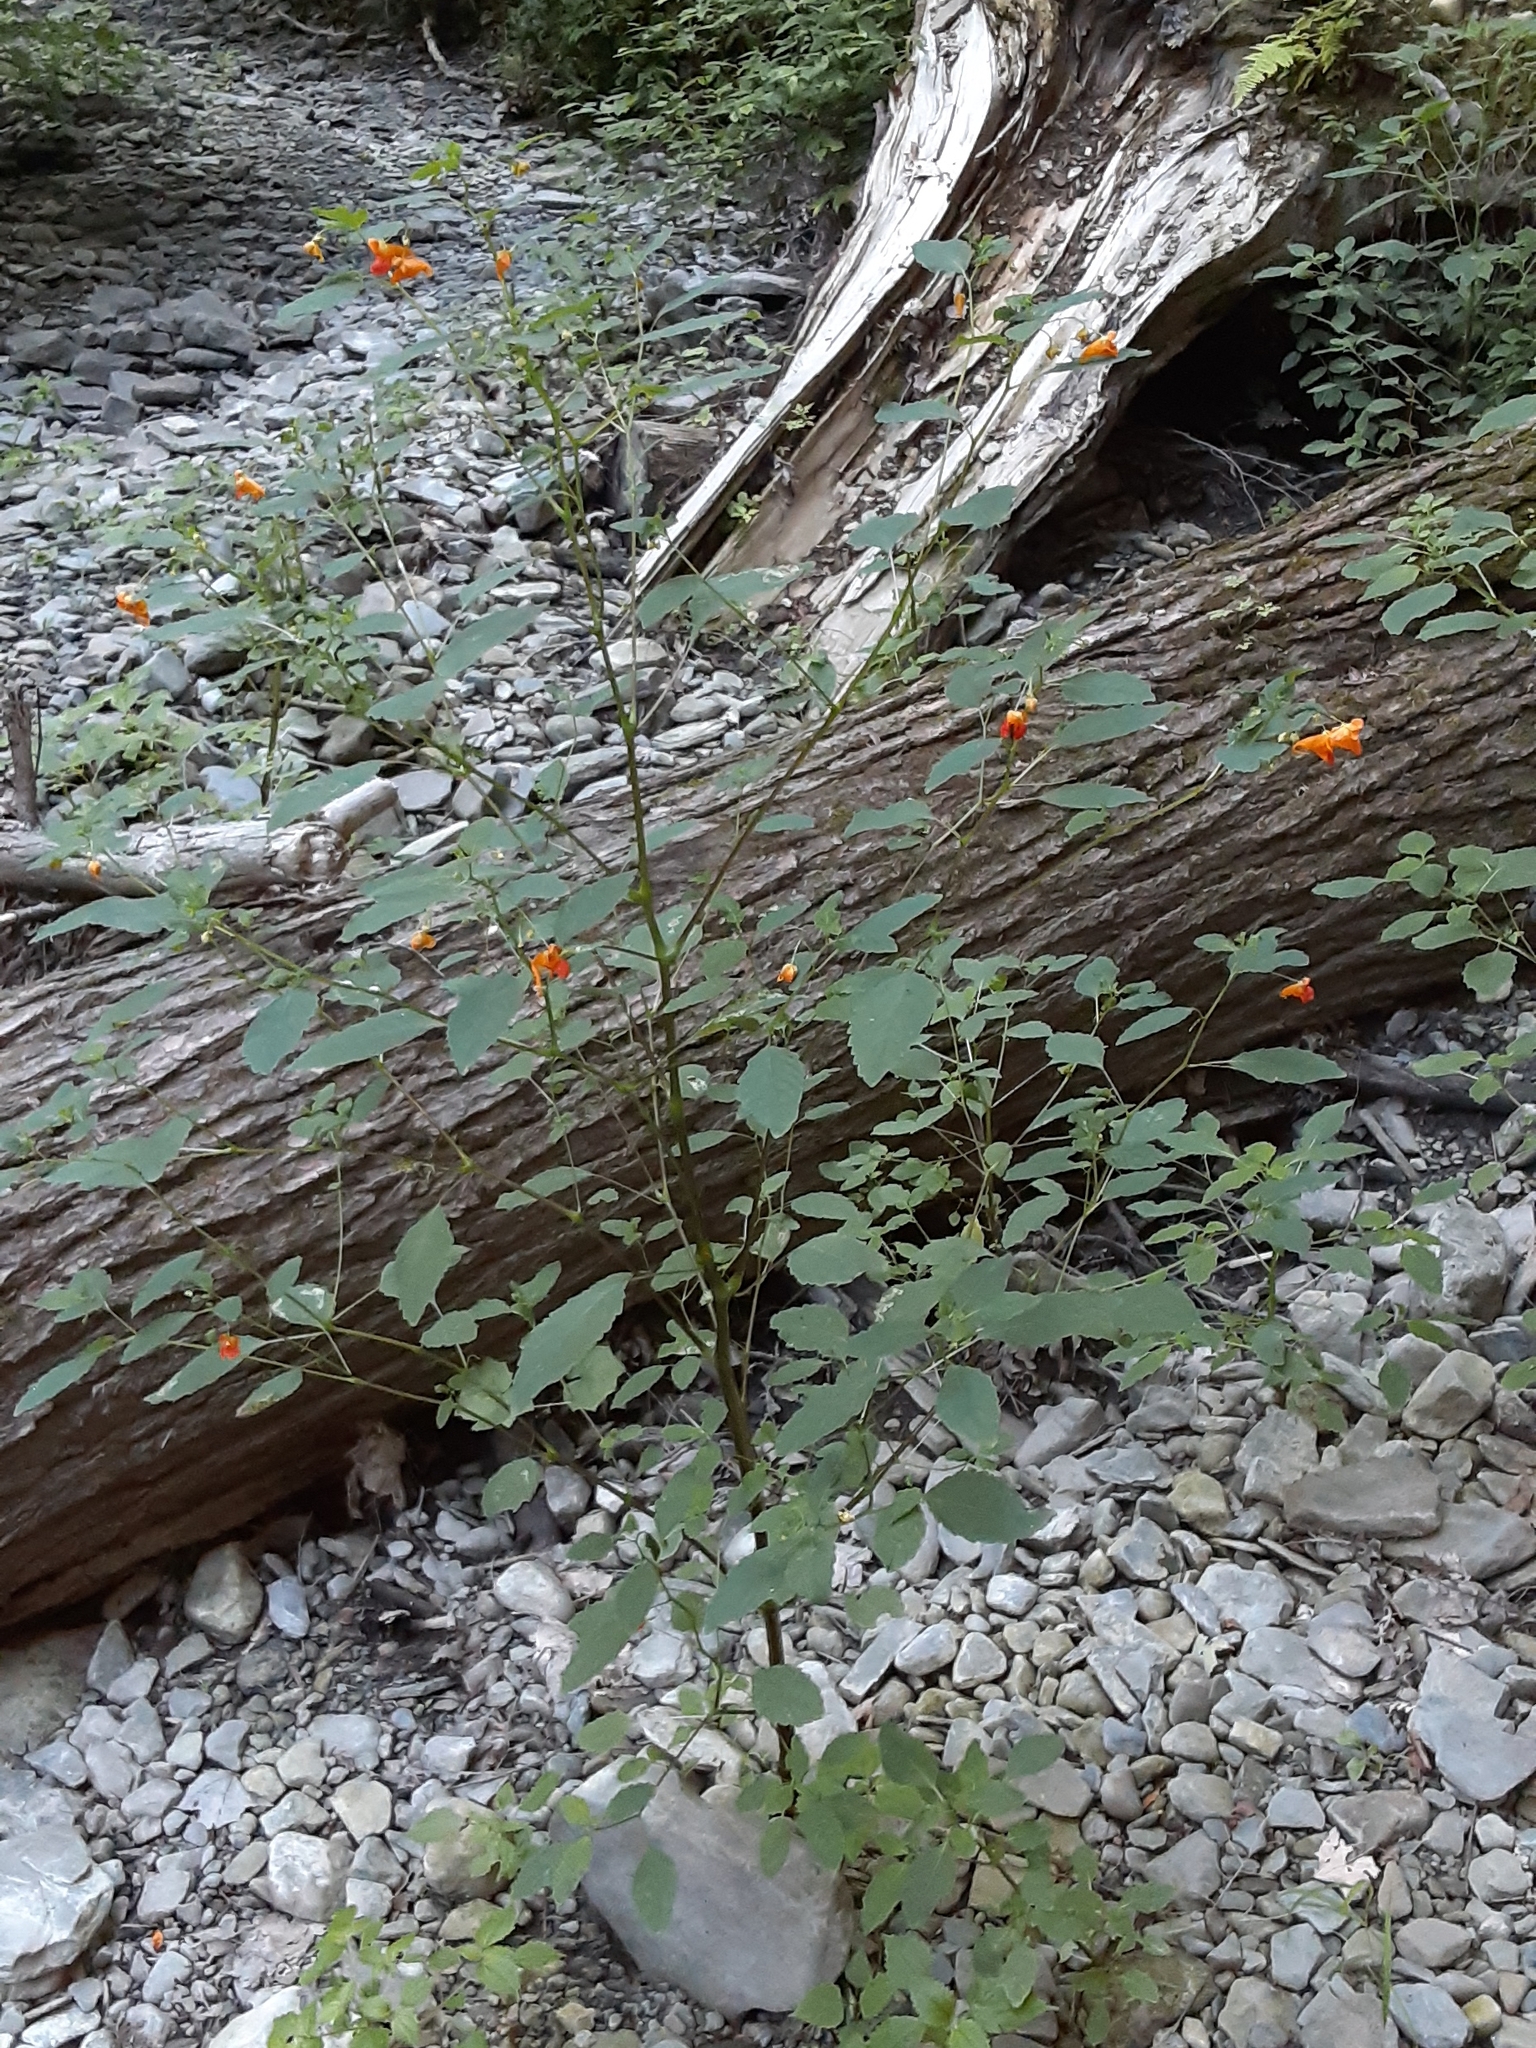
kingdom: Plantae
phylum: Tracheophyta
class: Magnoliopsida
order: Ericales
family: Balsaminaceae
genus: Impatiens
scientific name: Impatiens capensis
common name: Orange balsam
